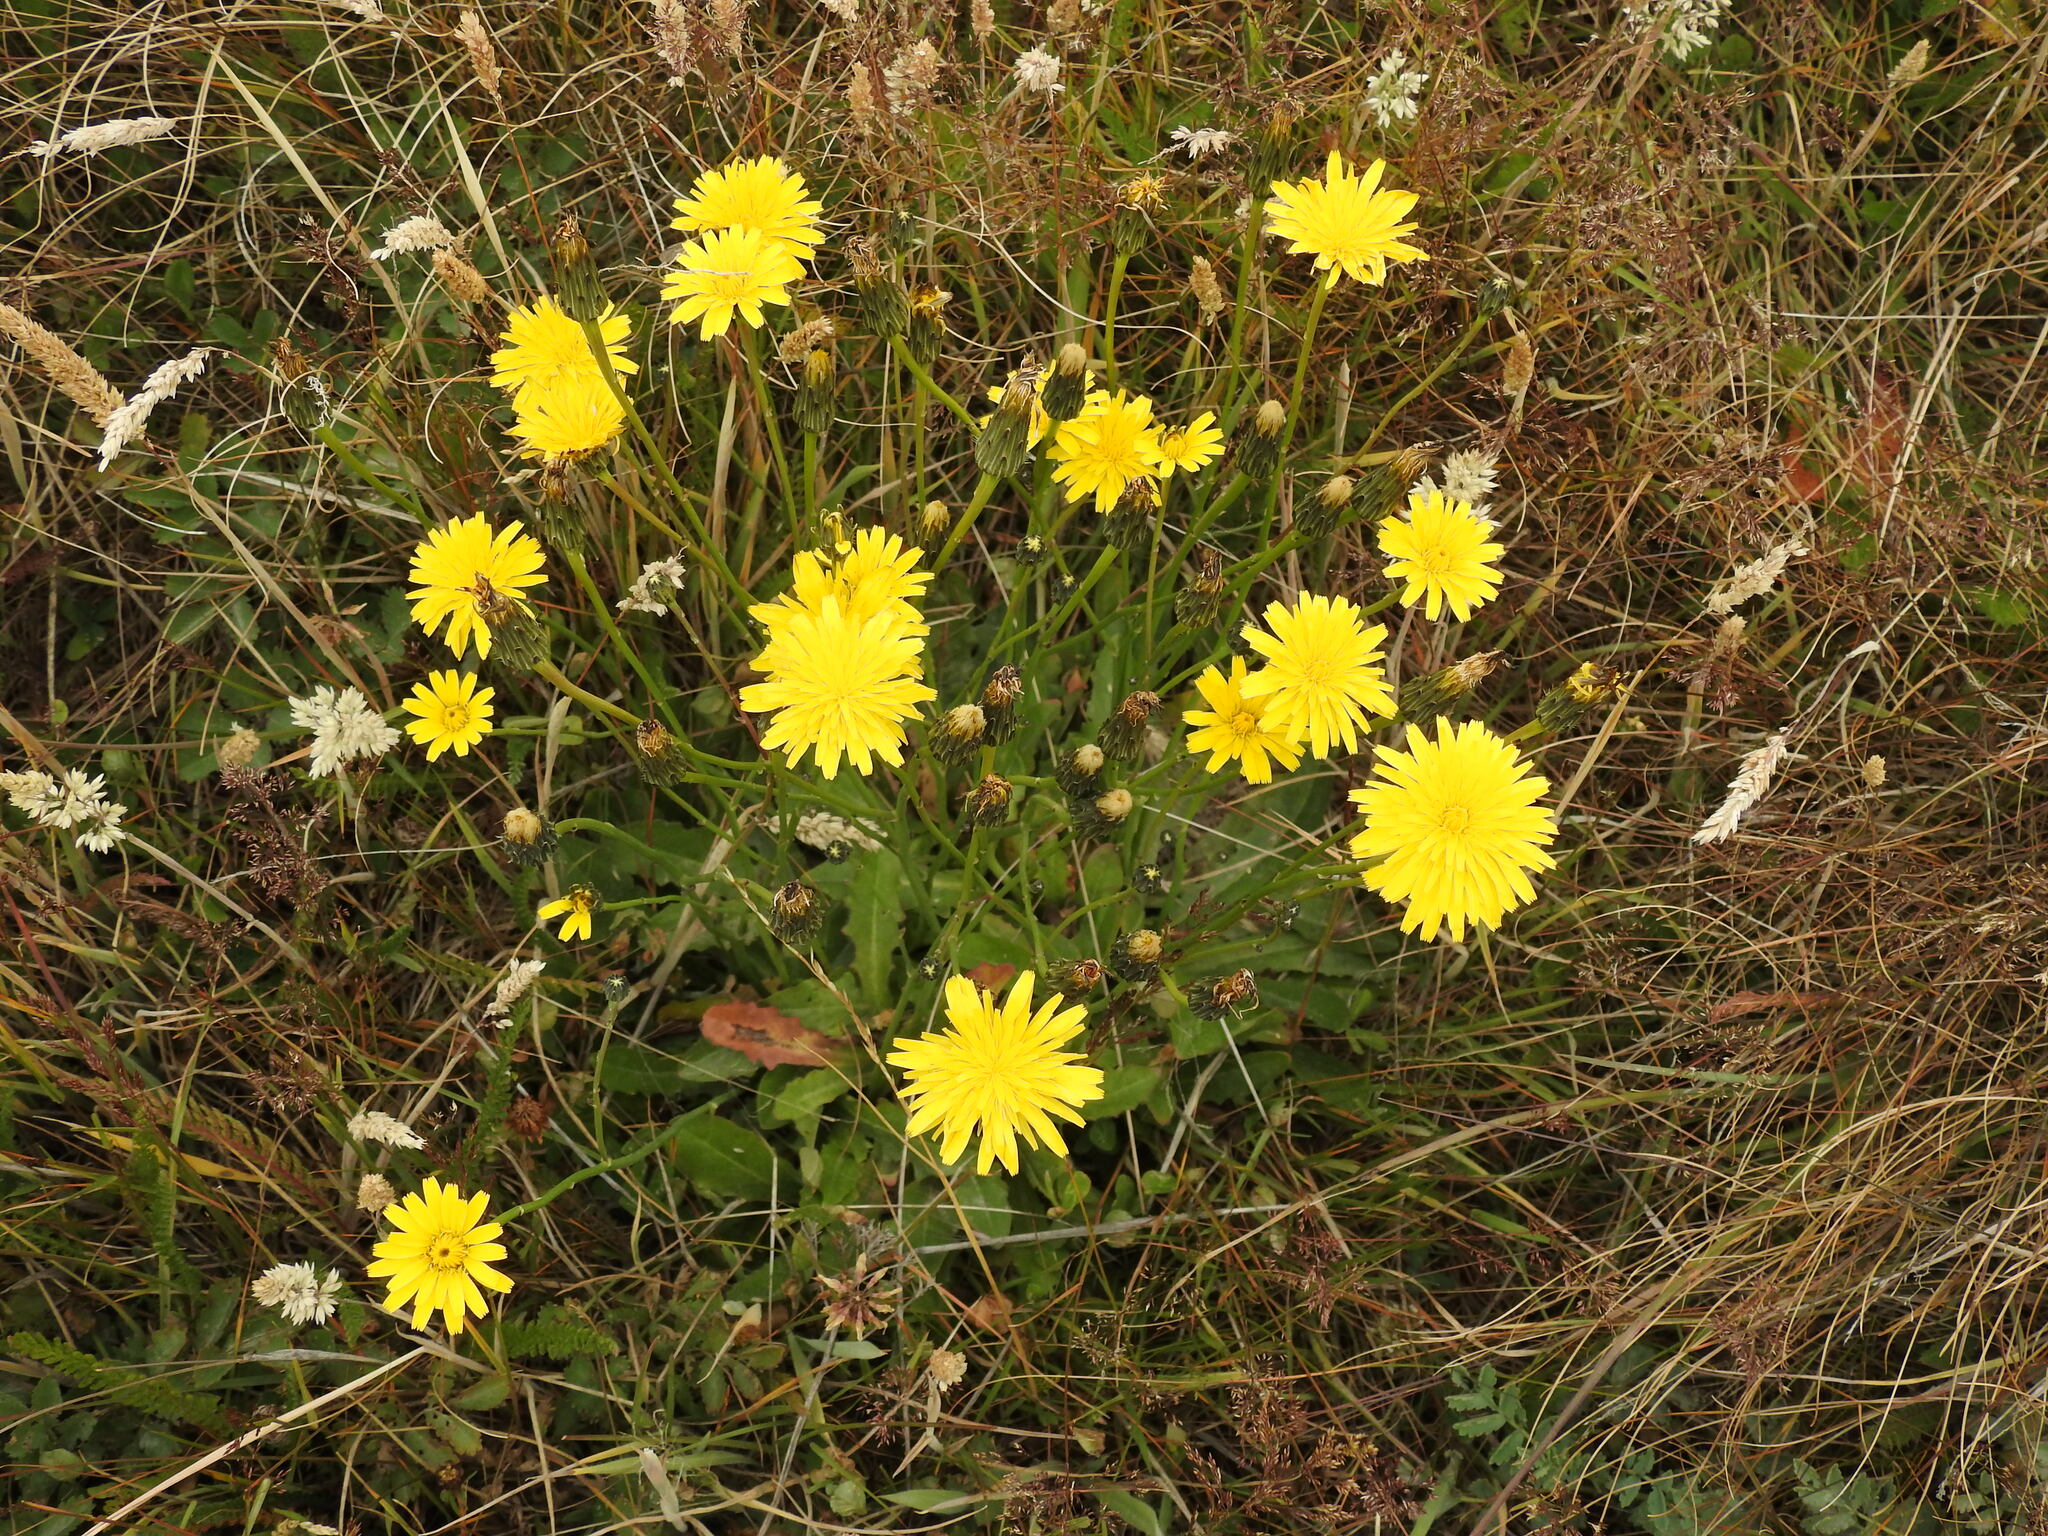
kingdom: Plantae
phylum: Tracheophyta
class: Magnoliopsida
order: Asterales
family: Asteraceae
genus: Hypochaeris
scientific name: Hypochaeris radicata
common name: Flatweed
